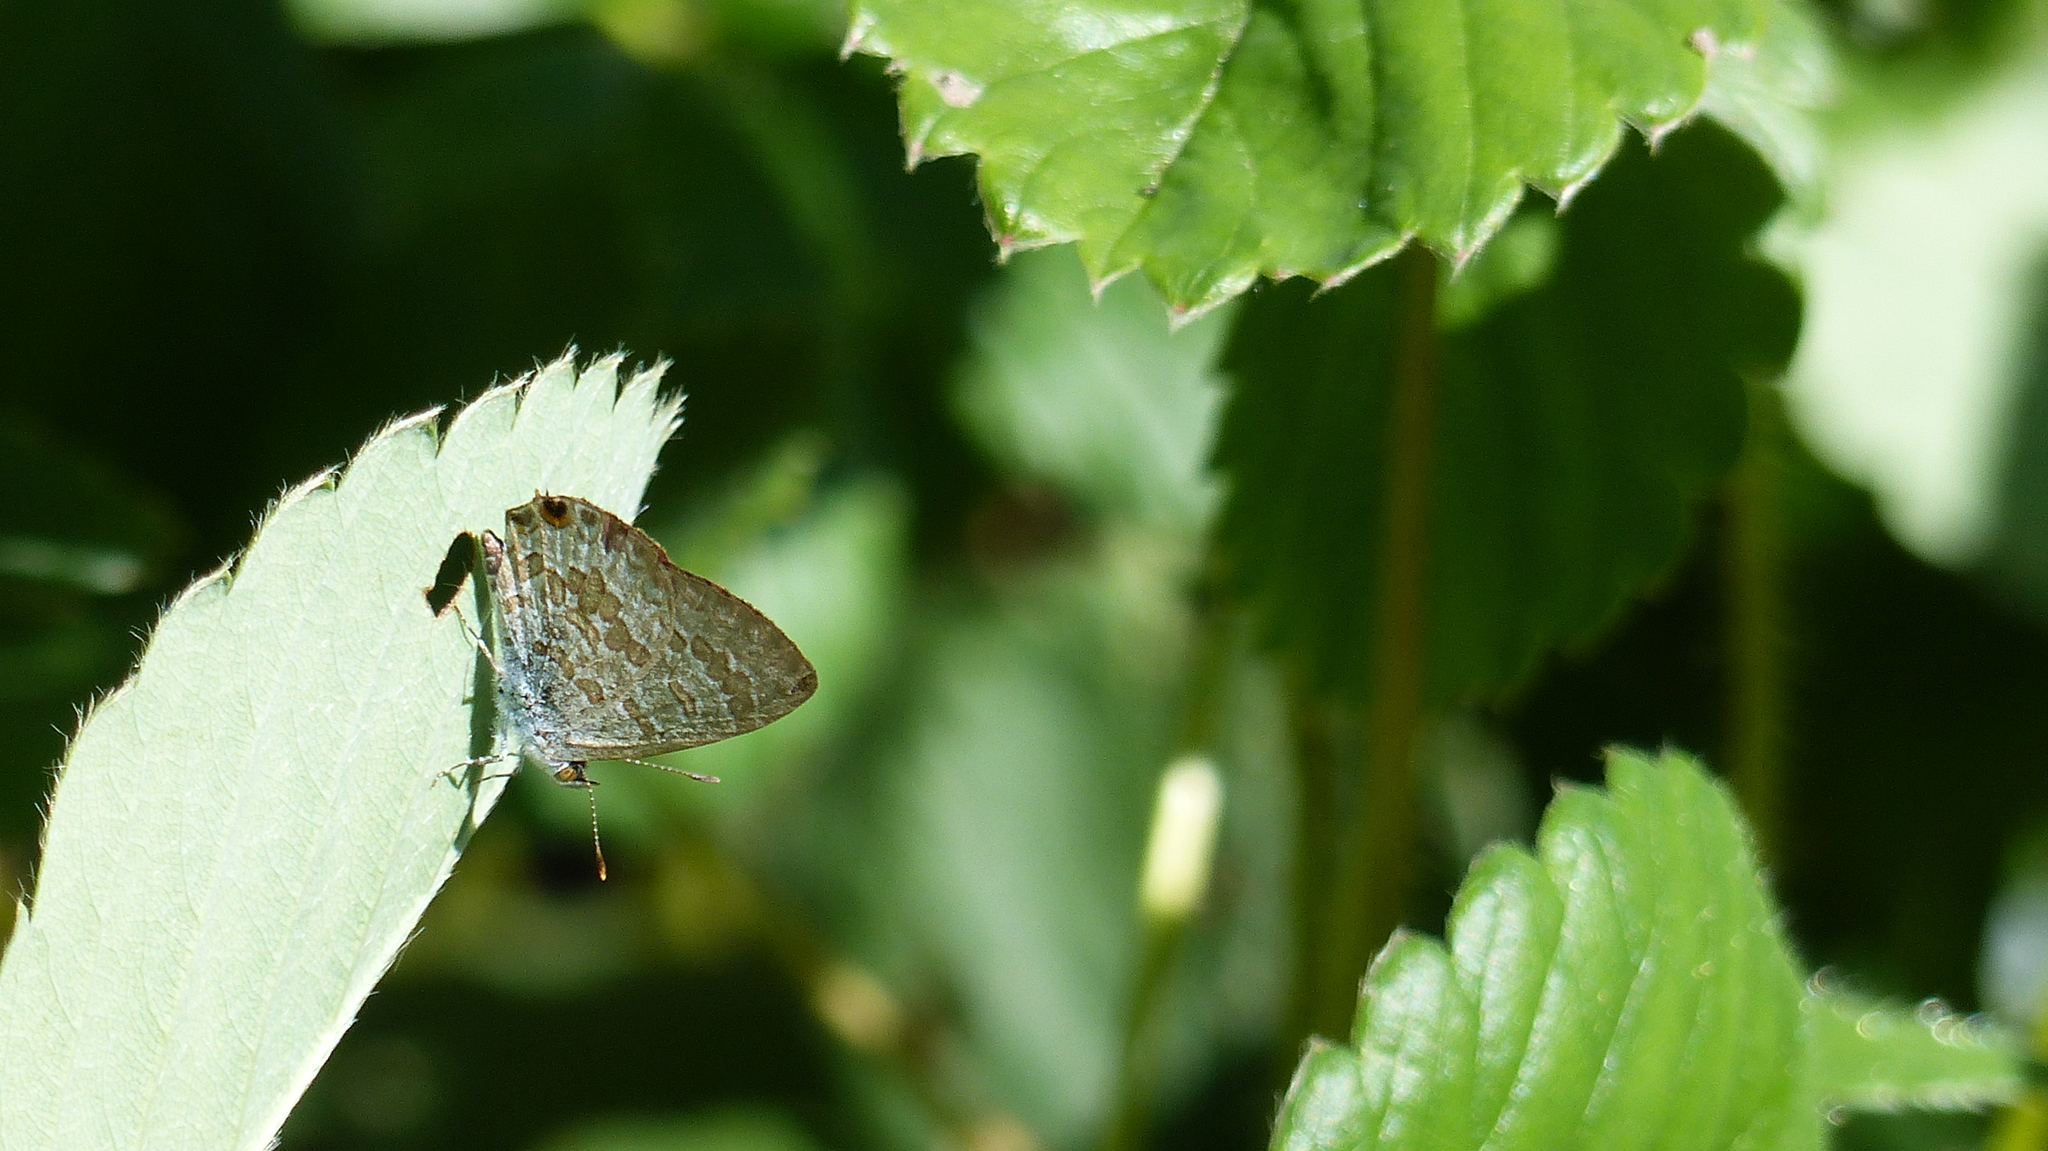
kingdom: Animalia
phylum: Arthropoda
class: Insecta
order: Lepidoptera
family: Lycaenidae
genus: Catopyrops
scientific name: Catopyrops florinda
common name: Speckled line-blue
